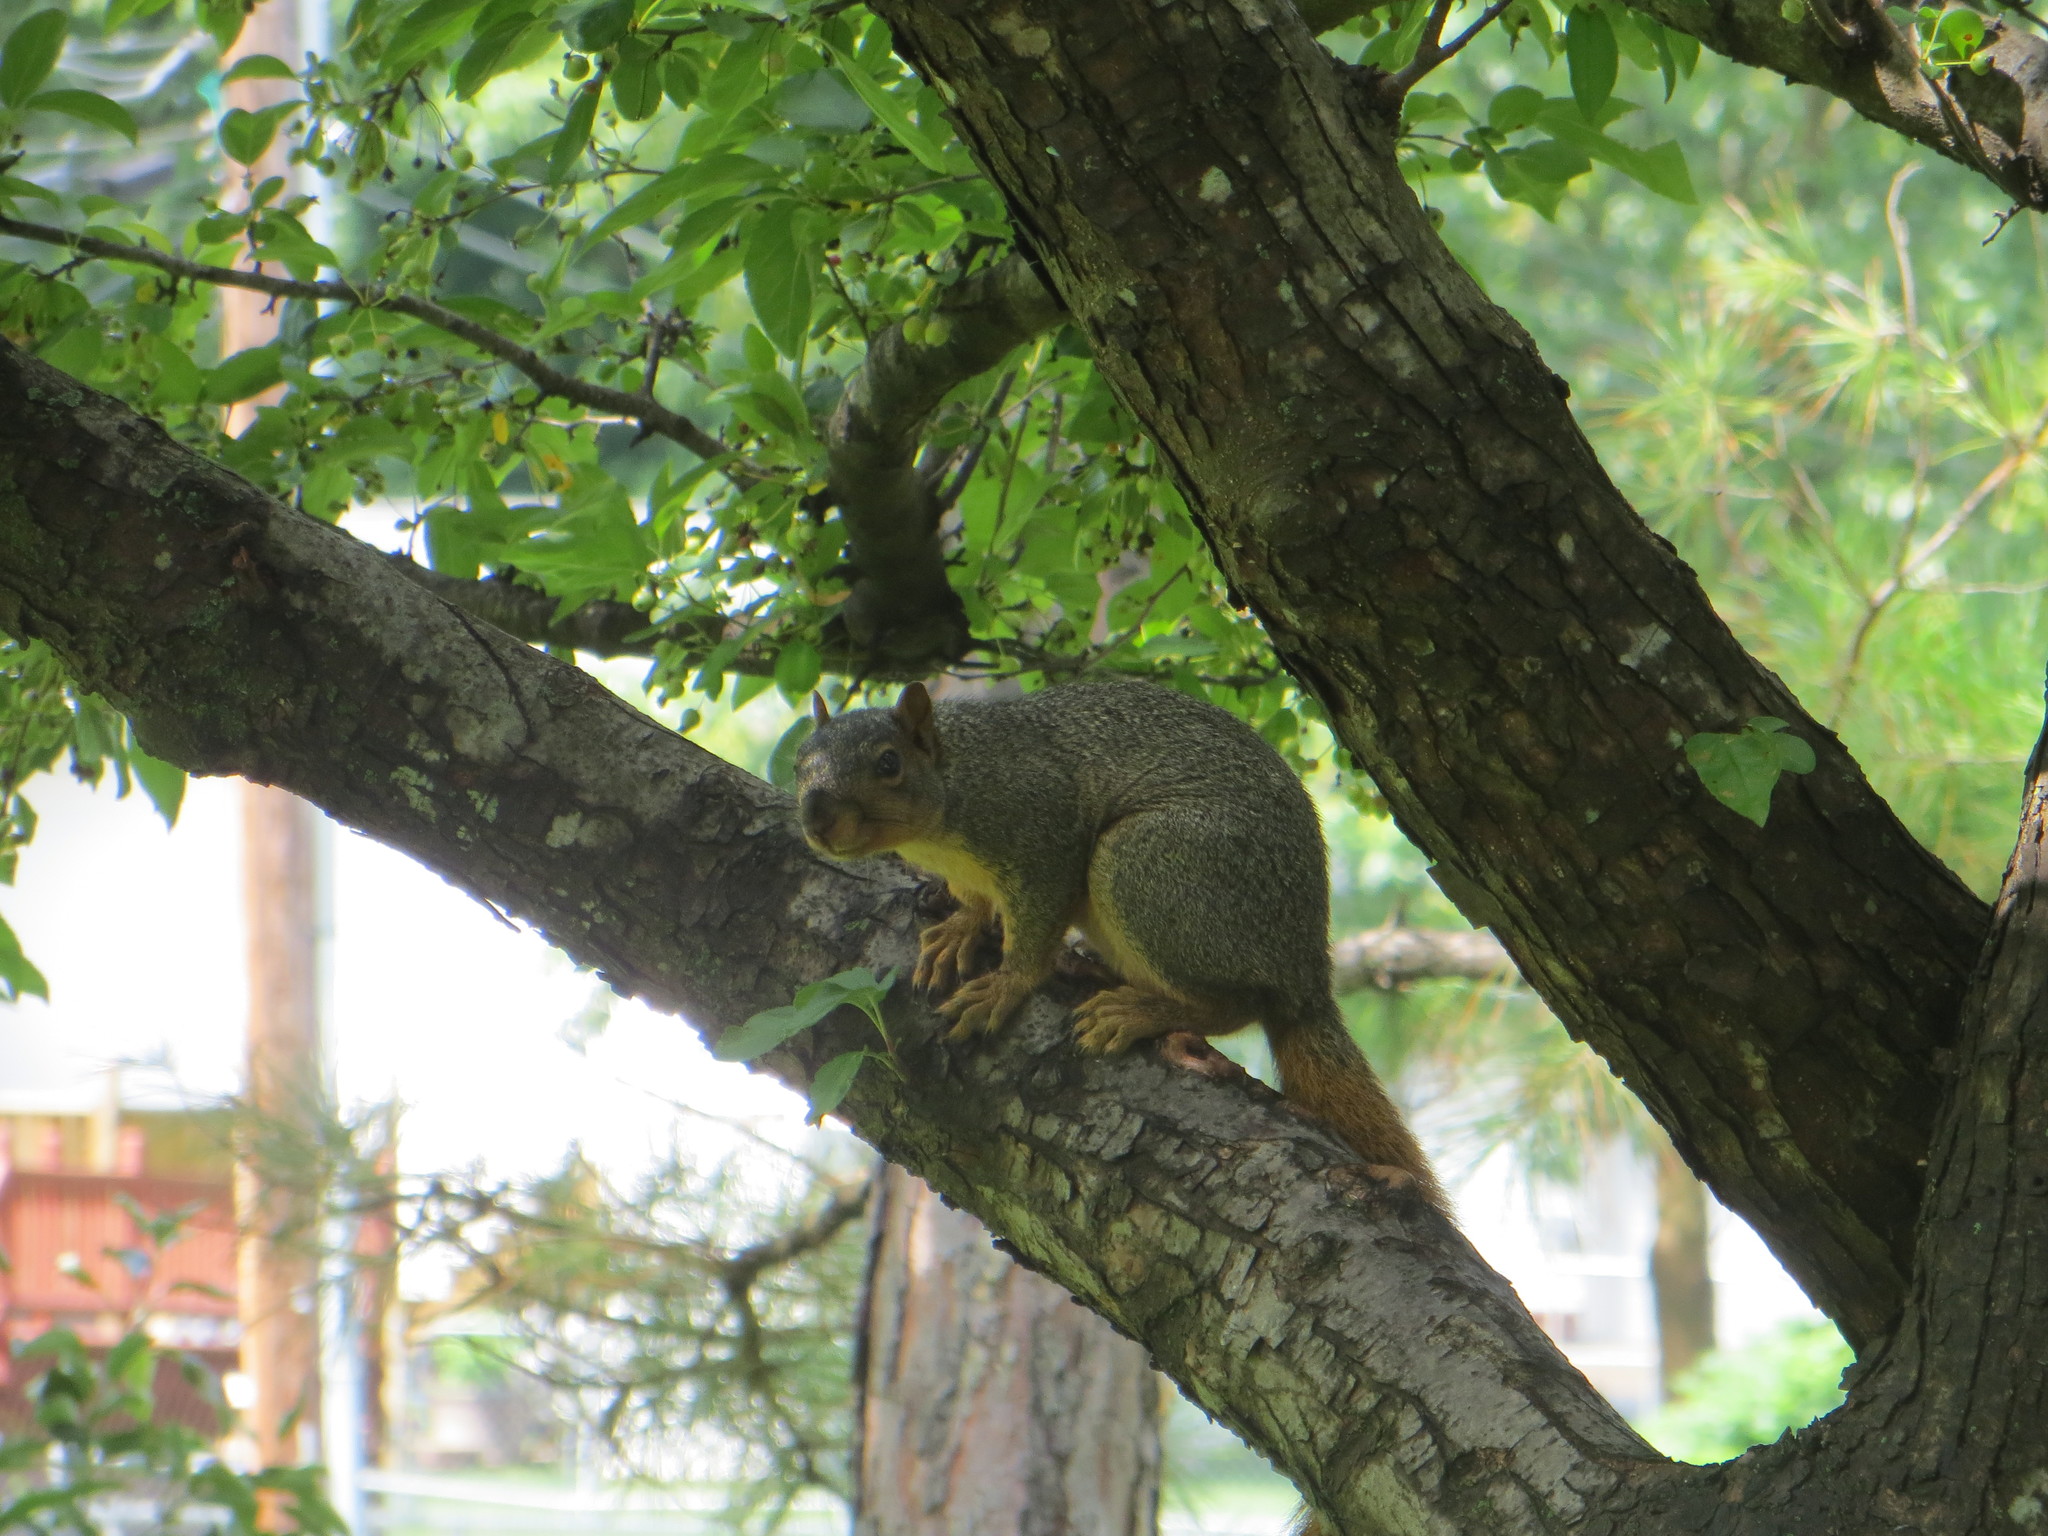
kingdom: Animalia
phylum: Chordata
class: Mammalia
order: Rodentia
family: Sciuridae
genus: Sciurus
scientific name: Sciurus niger
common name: Fox squirrel
